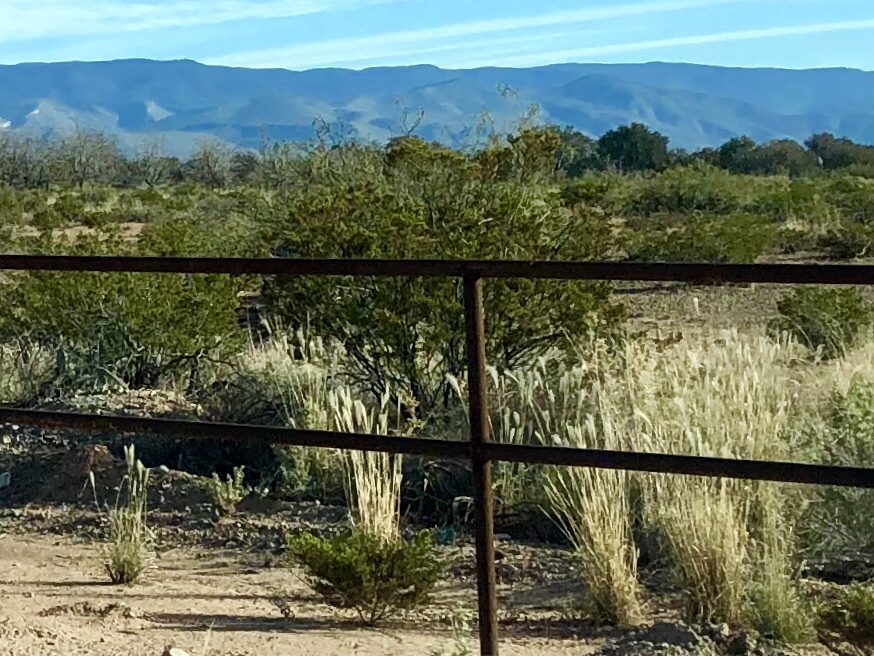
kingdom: Plantae
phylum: Tracheophyta
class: Magnoliopsida
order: Zygophyllales
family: Zygophyllaceae
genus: Larrea
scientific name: Larrea tridentata
